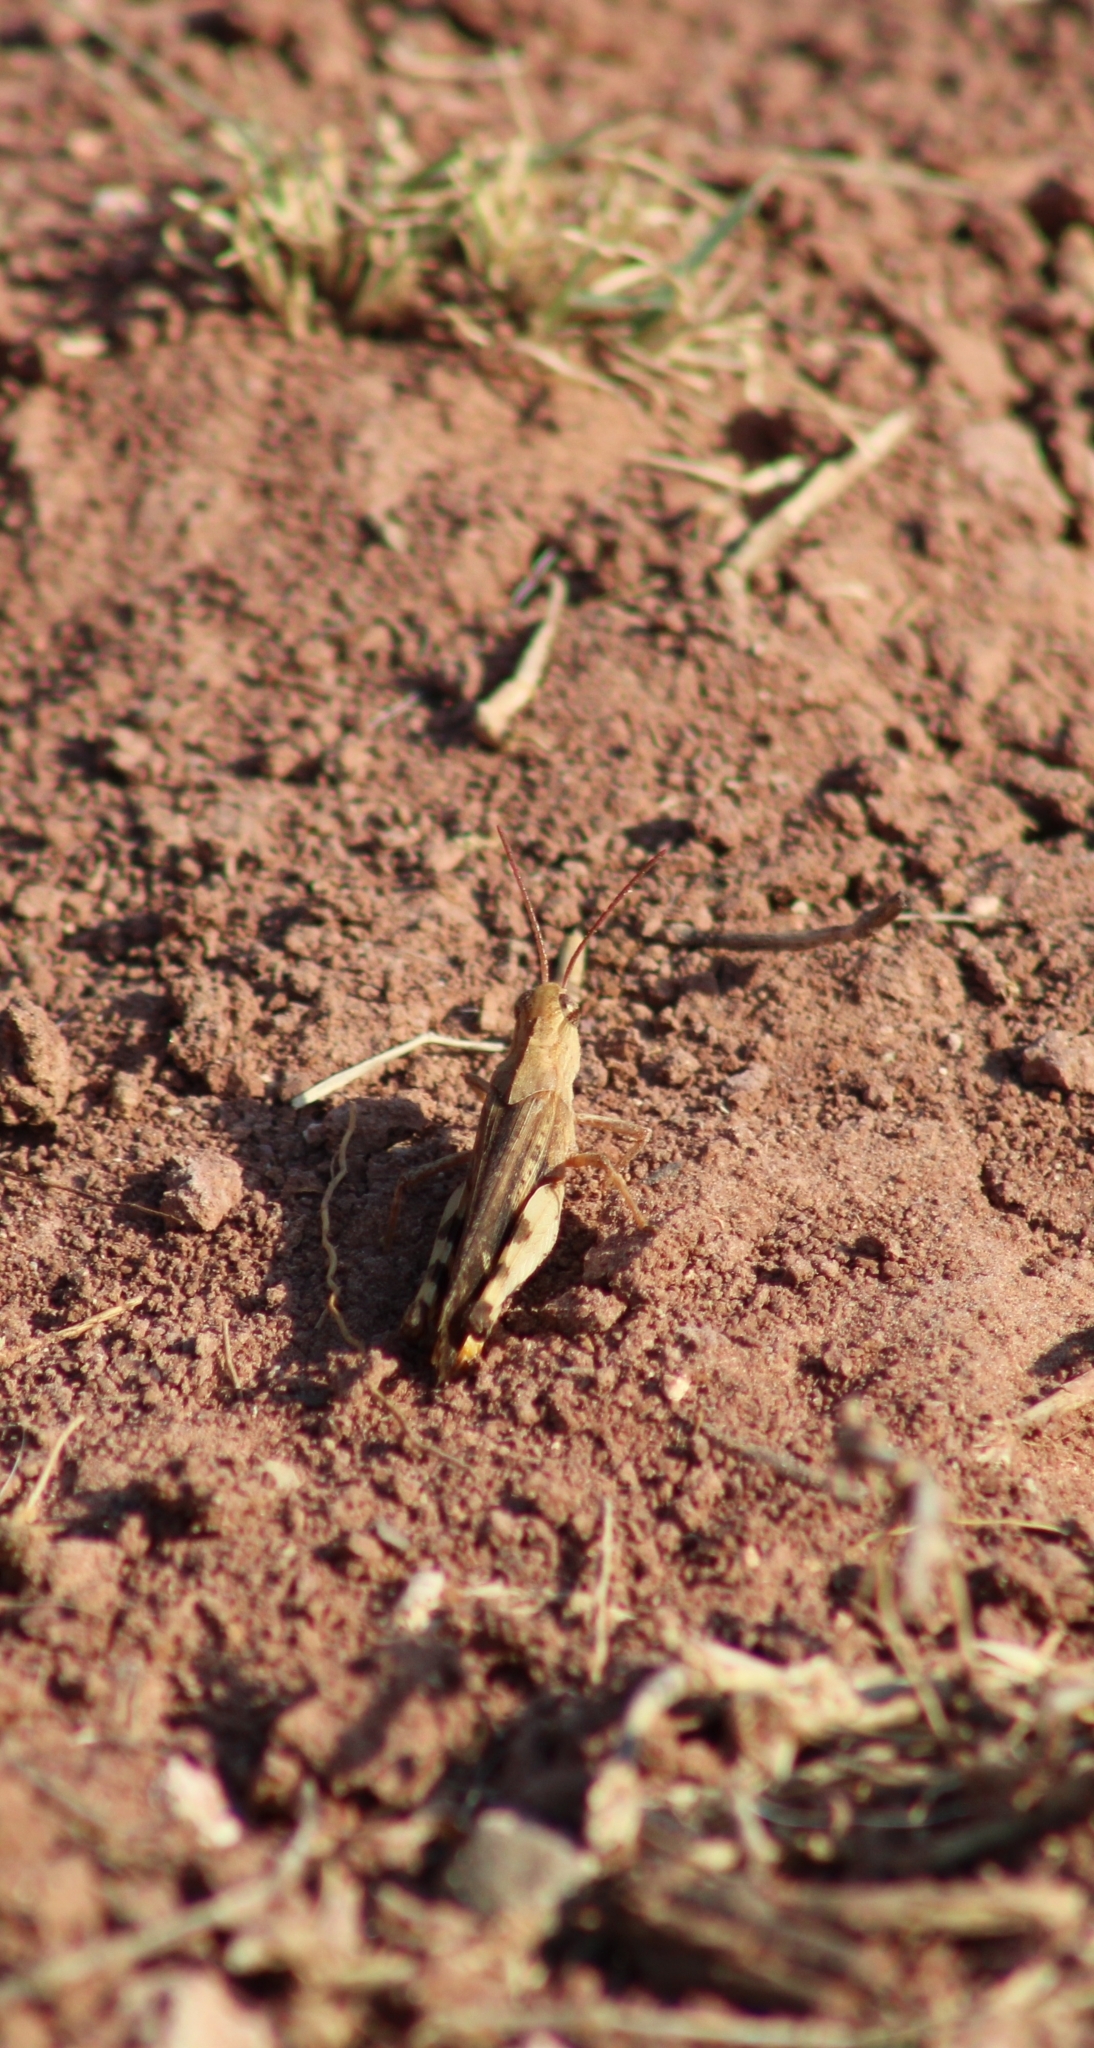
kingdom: Animalia
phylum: Arthropoda
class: Insecta
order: Orthoptera
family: Acrididae
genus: Chortophaga
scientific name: Chortophaga viridifasciata
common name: Green-striped grasshopper
